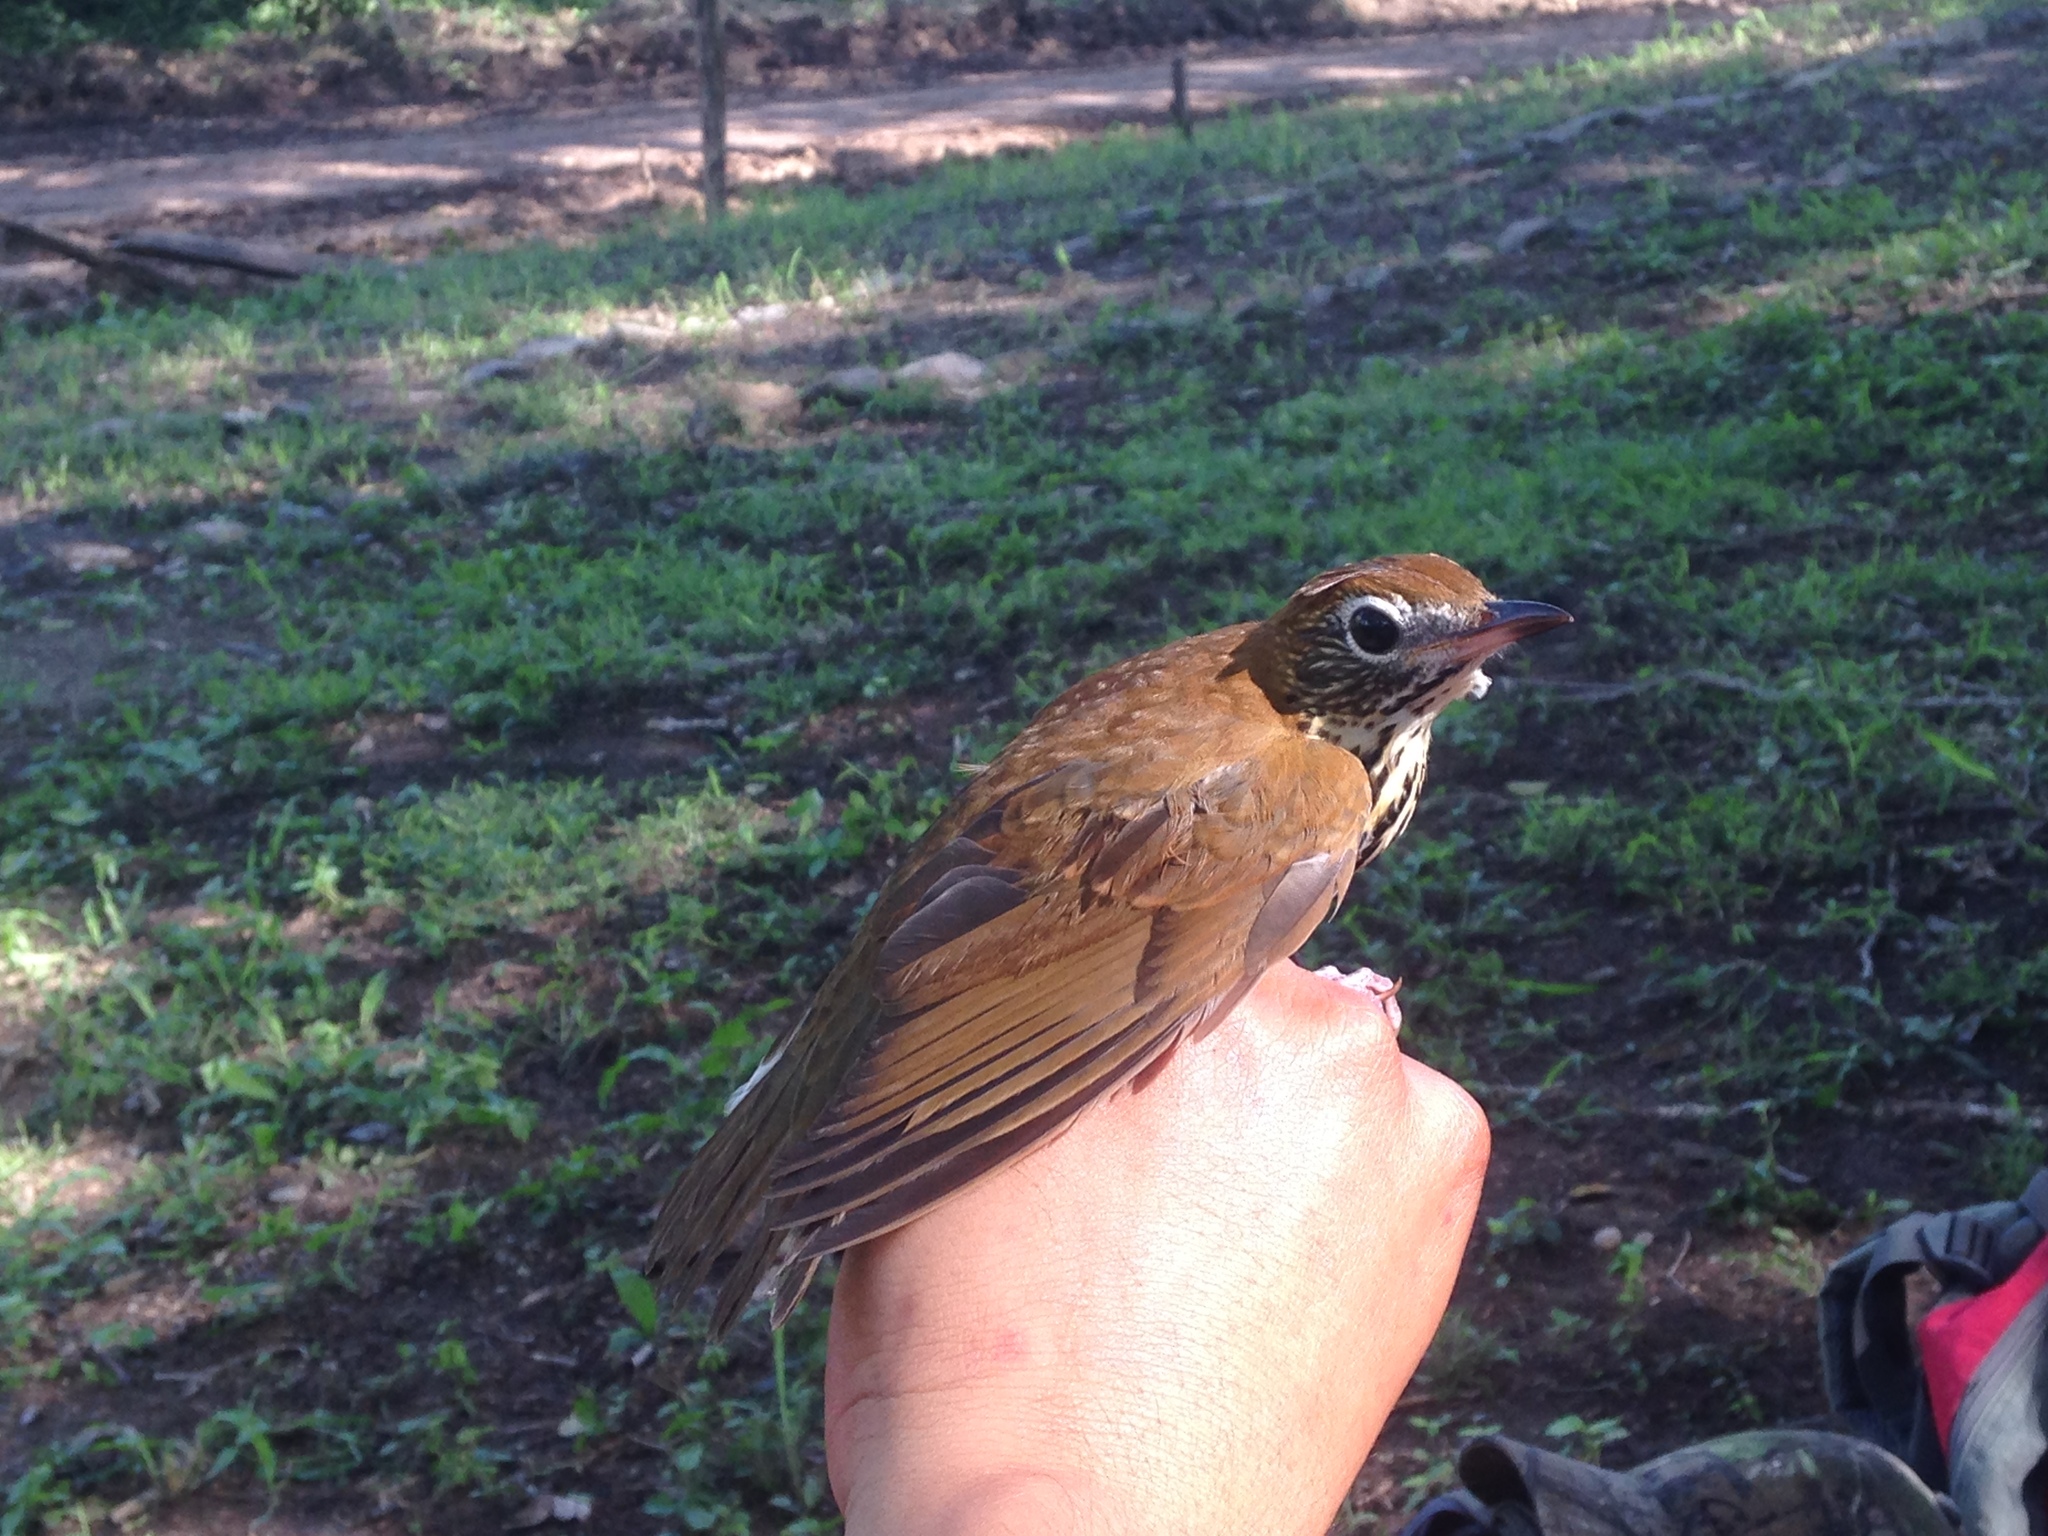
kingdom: Animalia
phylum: Chordata
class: Aves
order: Passeriformes
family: Turdidae
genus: Hylocichla
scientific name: Hylocichla mustelina
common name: Wood thrush
